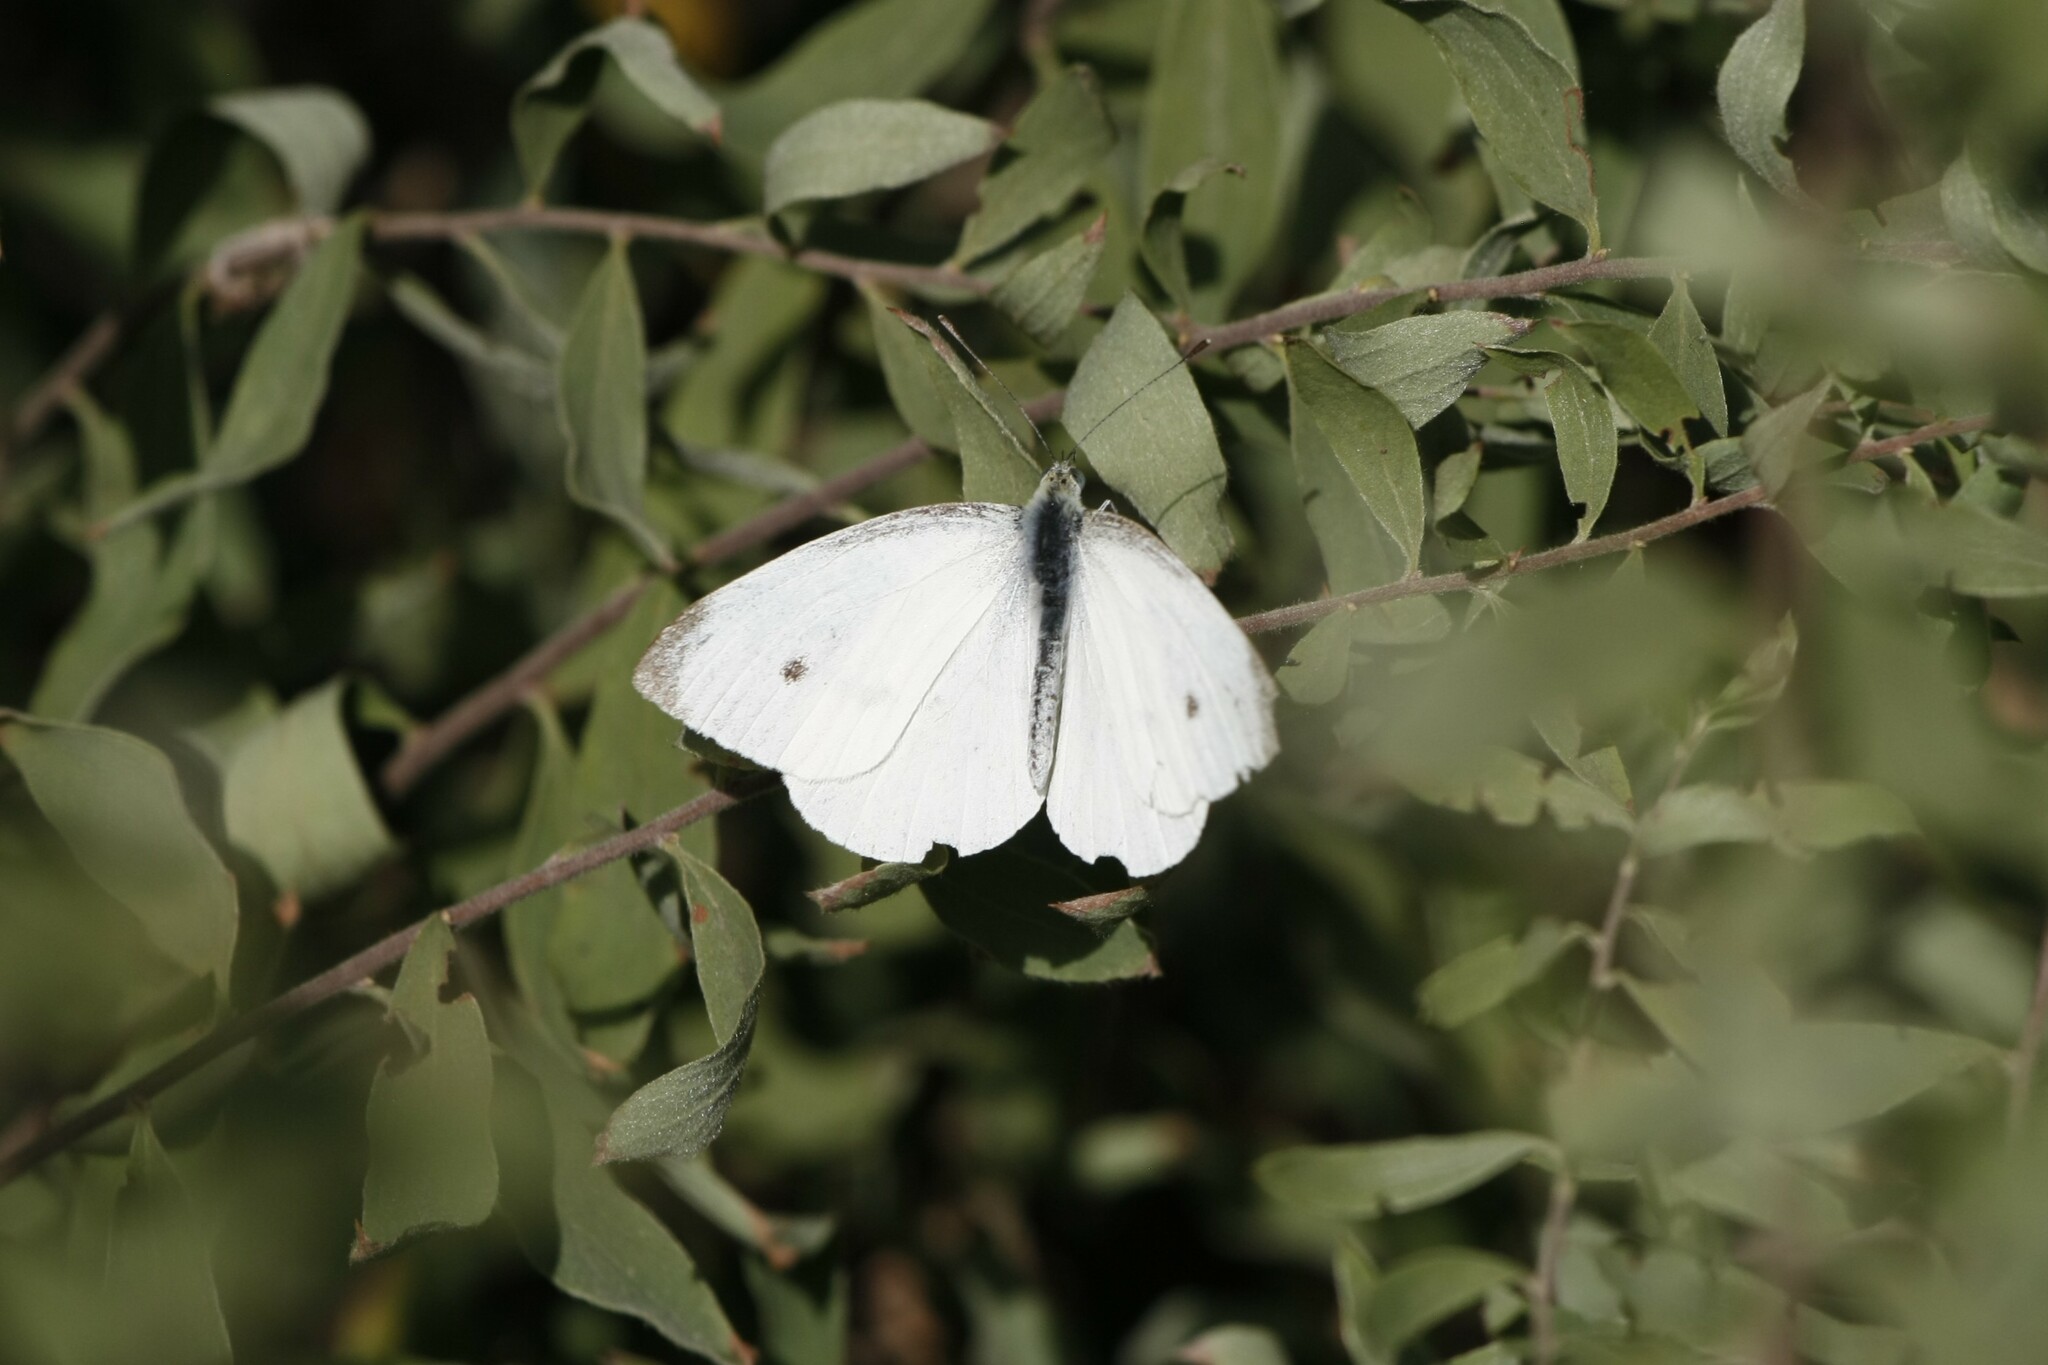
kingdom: Animalia
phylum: Arthropoda
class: Insecta
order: Lepidoptera
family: Pieridae
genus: Pieris
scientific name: Pieris rapae
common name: Small white
